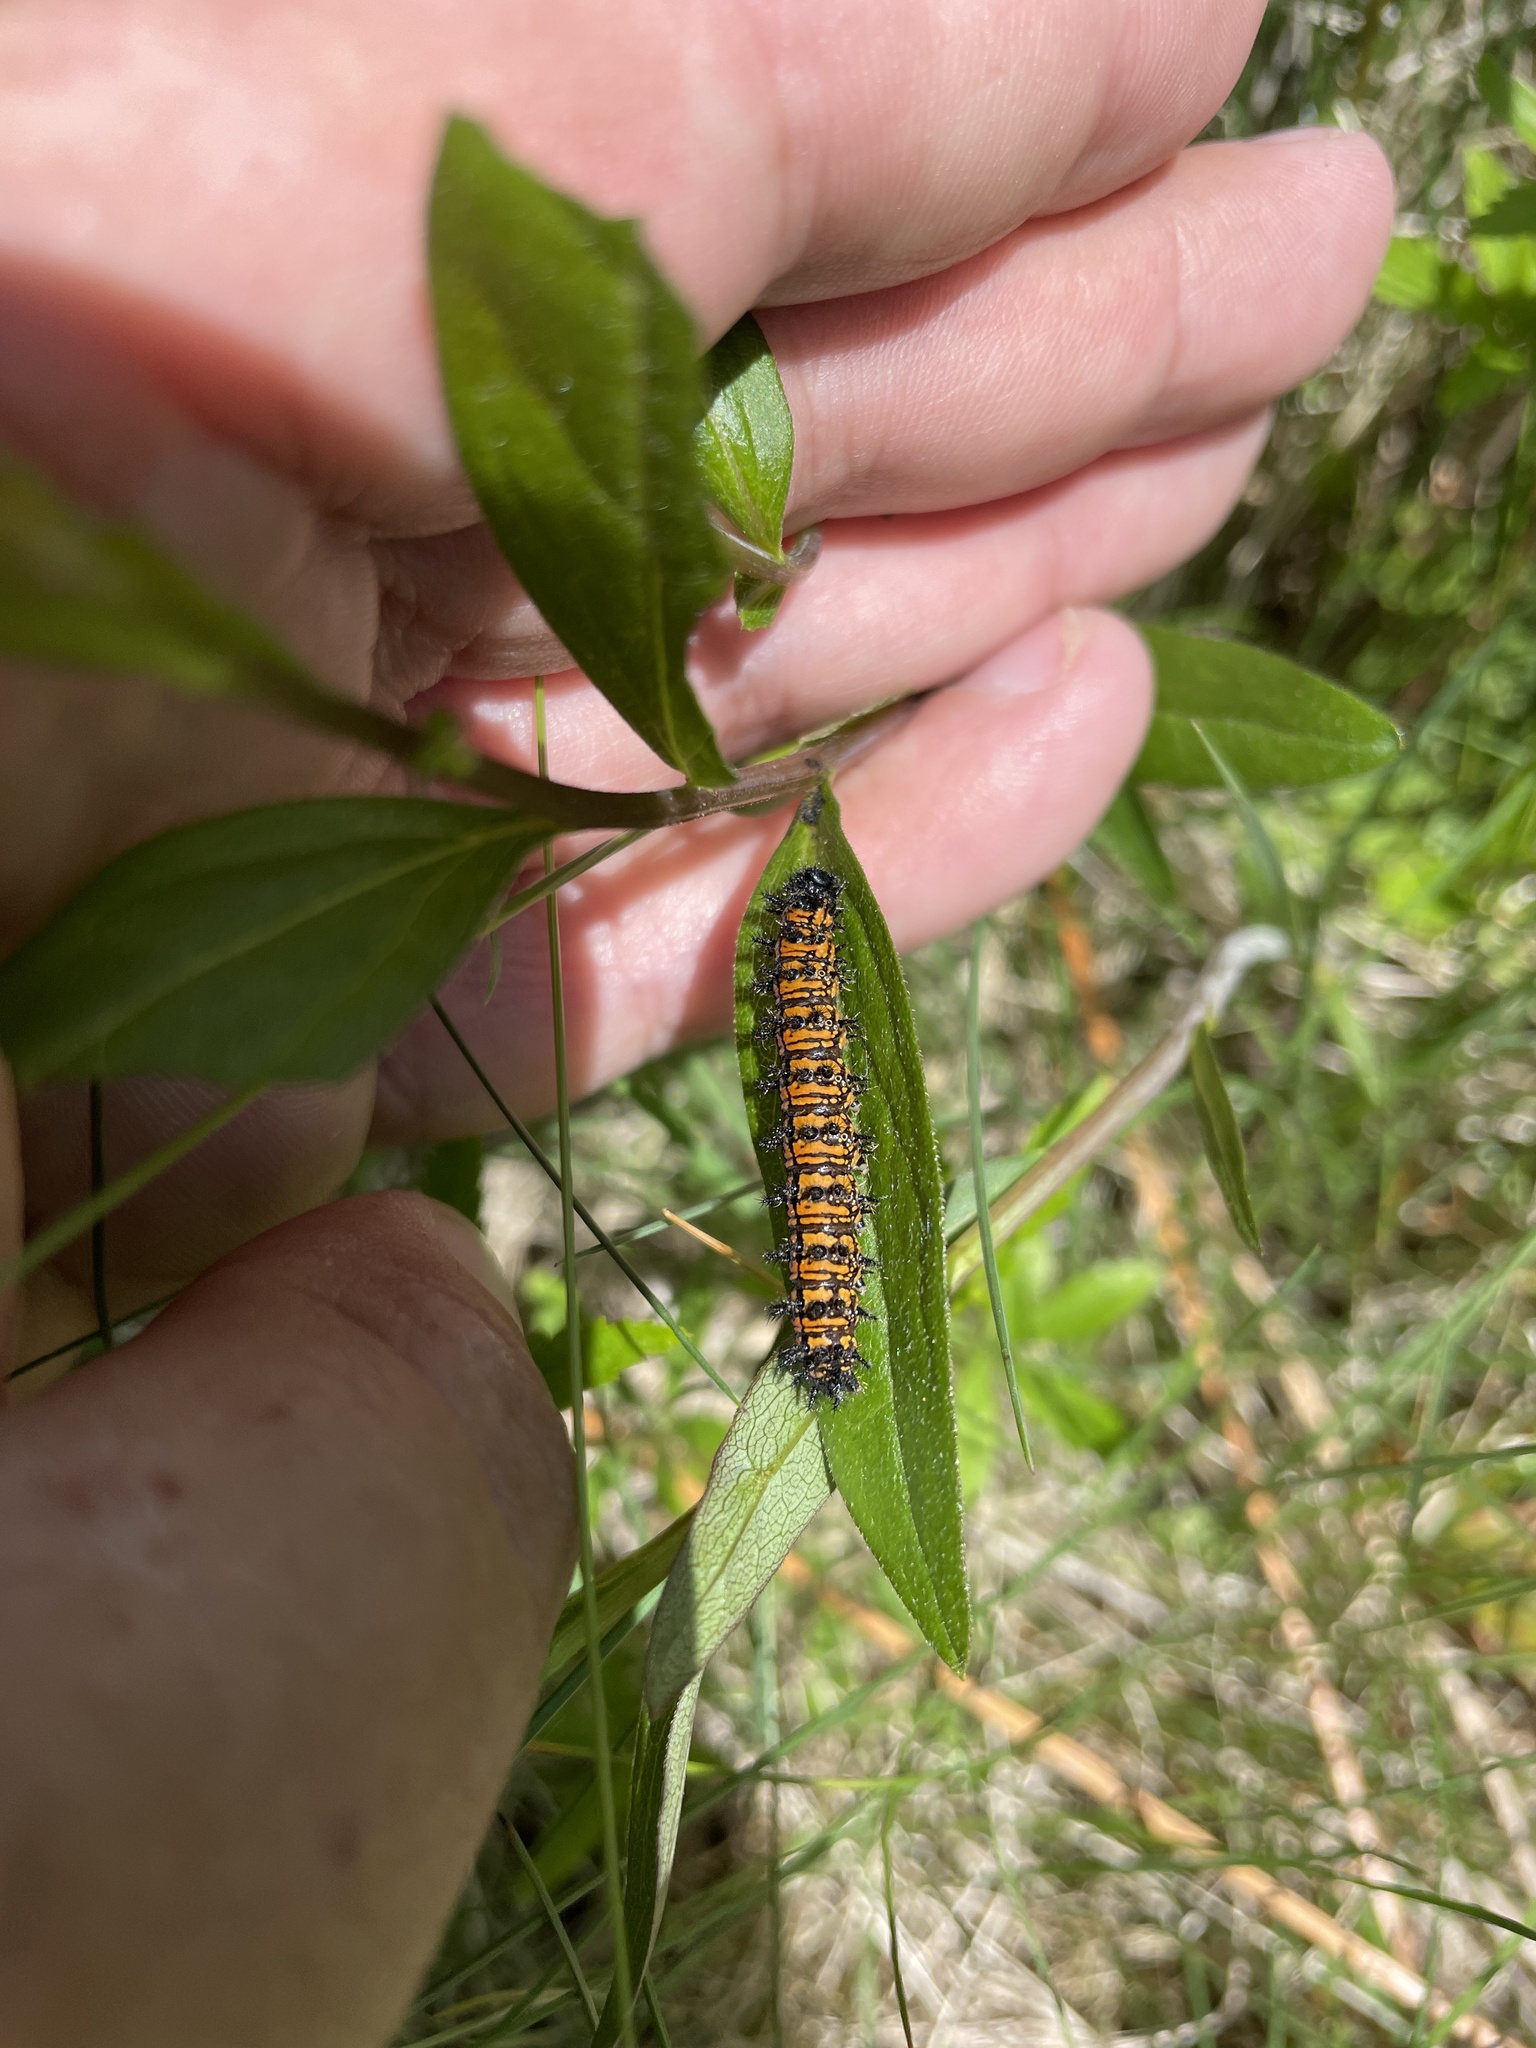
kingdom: Animalia
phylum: Arthropoda
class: Insecta
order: Lepidoptera
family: Nymphalidae
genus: Chlosyne
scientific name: Chlosyne harrisii
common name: Harris's checkerspot
